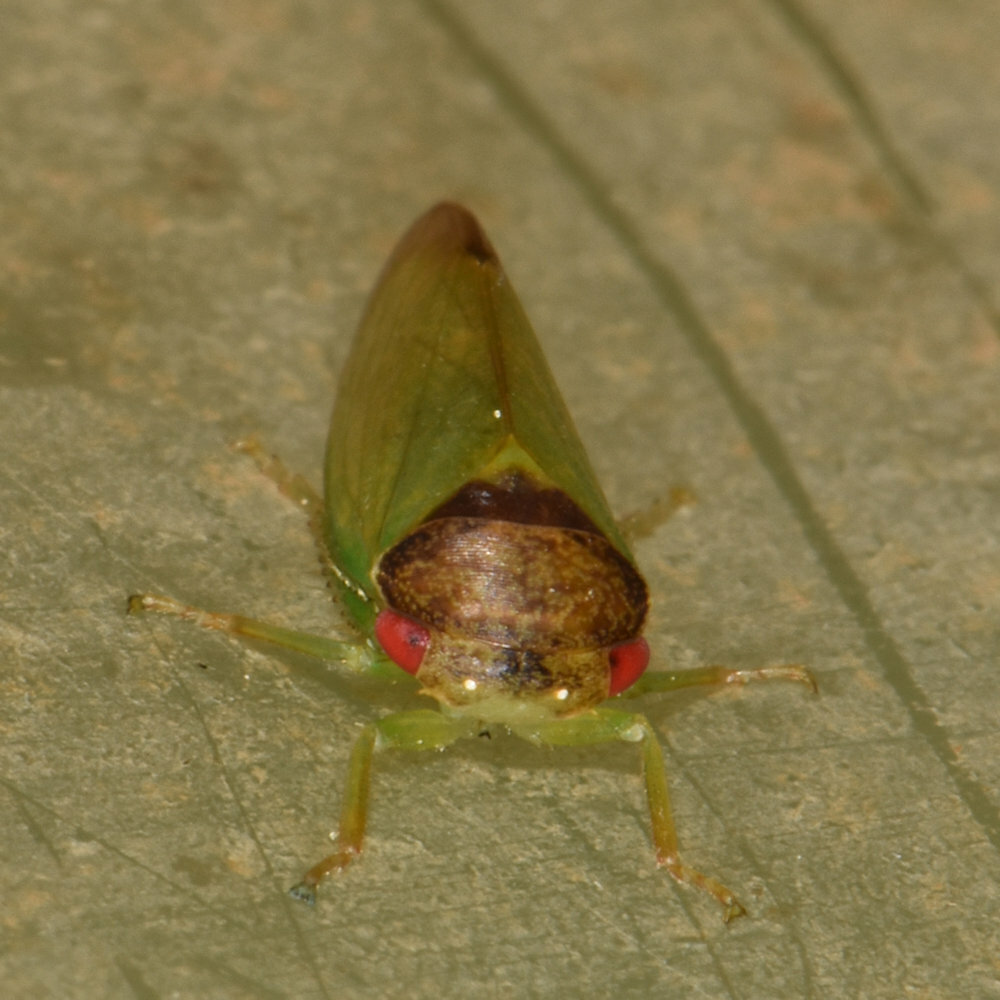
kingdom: Animalia
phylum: Arthropoda
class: Insecta
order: Hemiptera
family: Cicadellidae
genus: Iassus
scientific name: Iassus lanio
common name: Leafhopper
